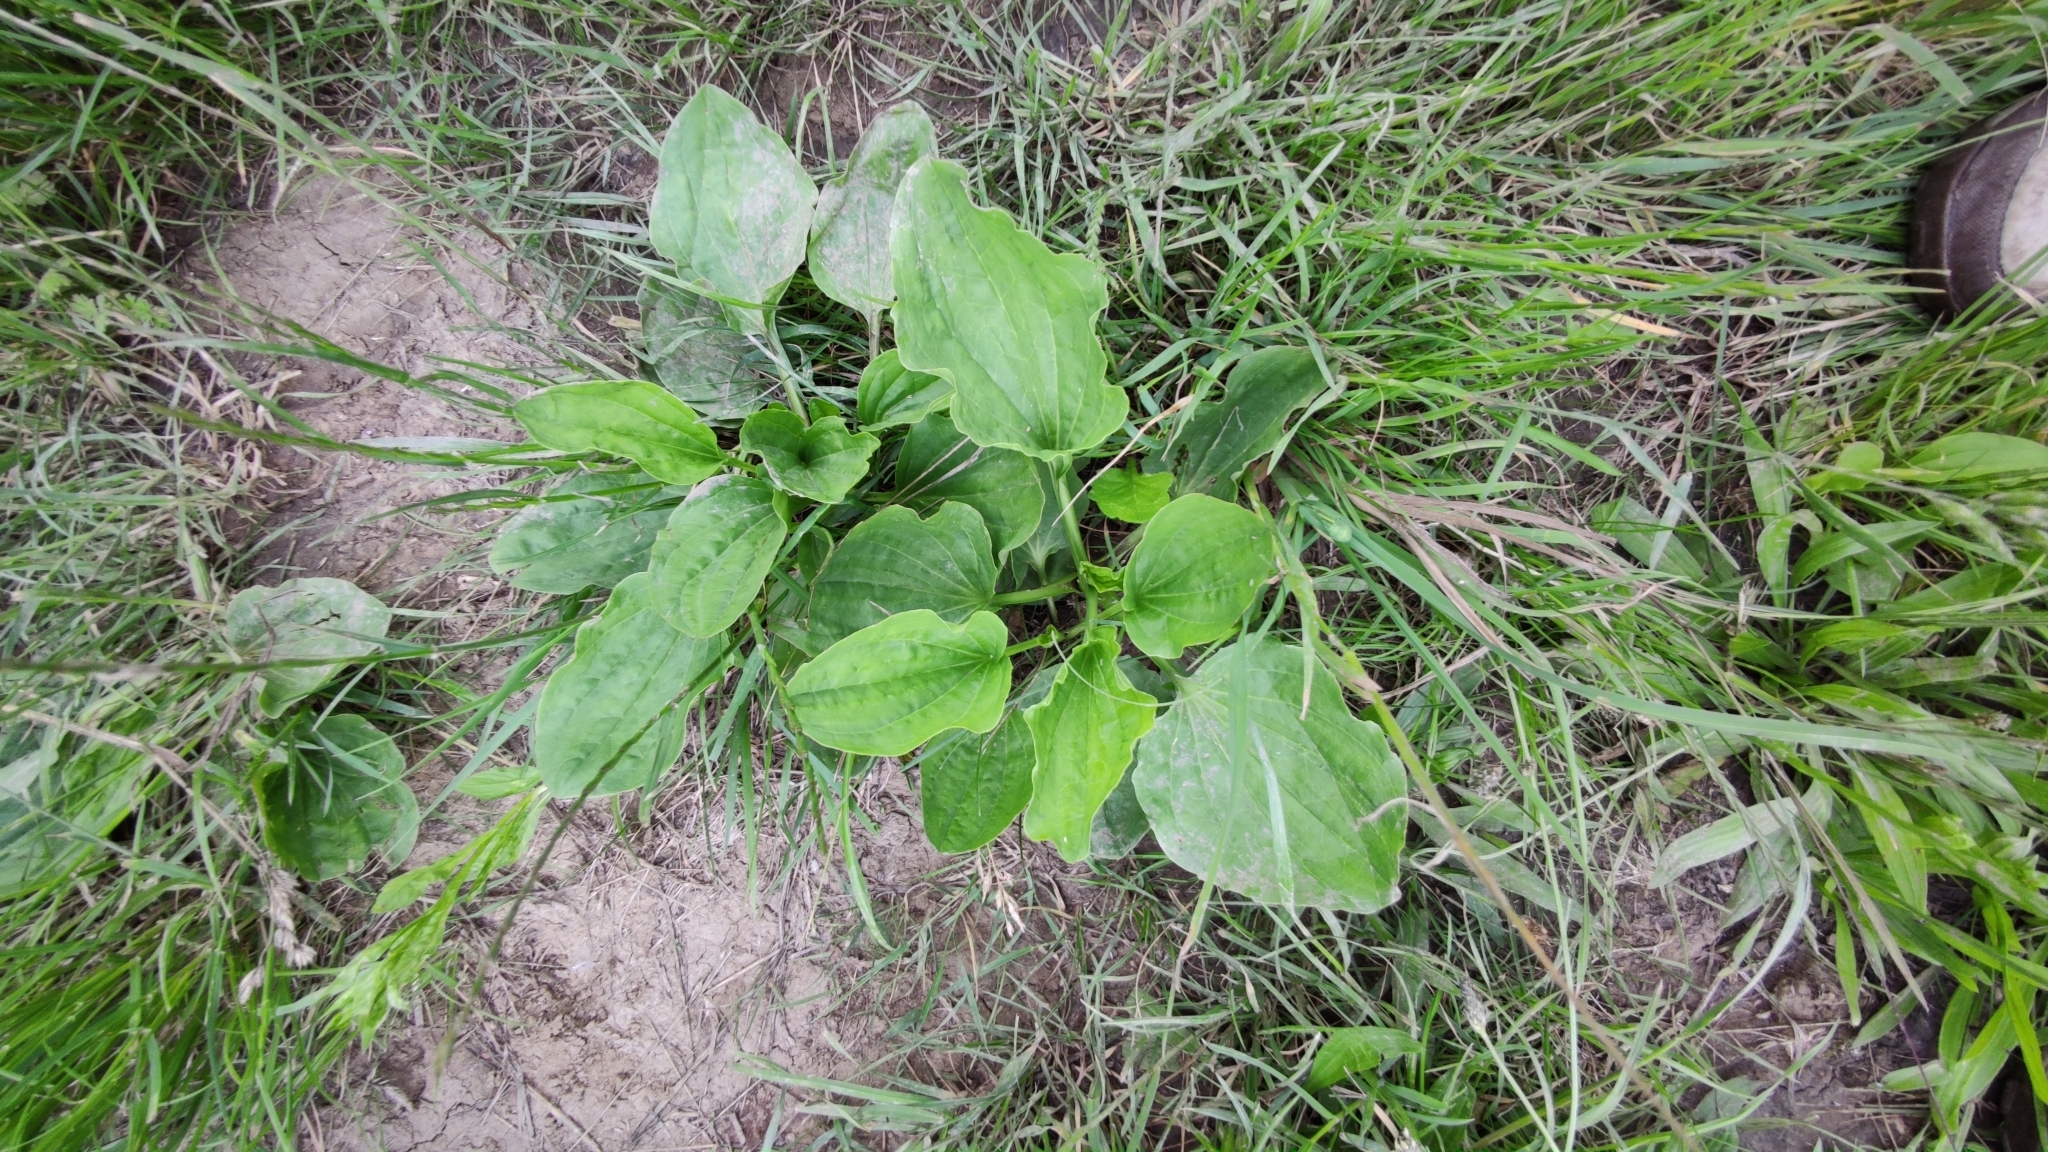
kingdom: Plantae
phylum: Tracheophyta
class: Magnoliopsida
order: Lamiales
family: Plantaginaceae
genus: Plantago
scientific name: Plantago major
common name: Common plantain
